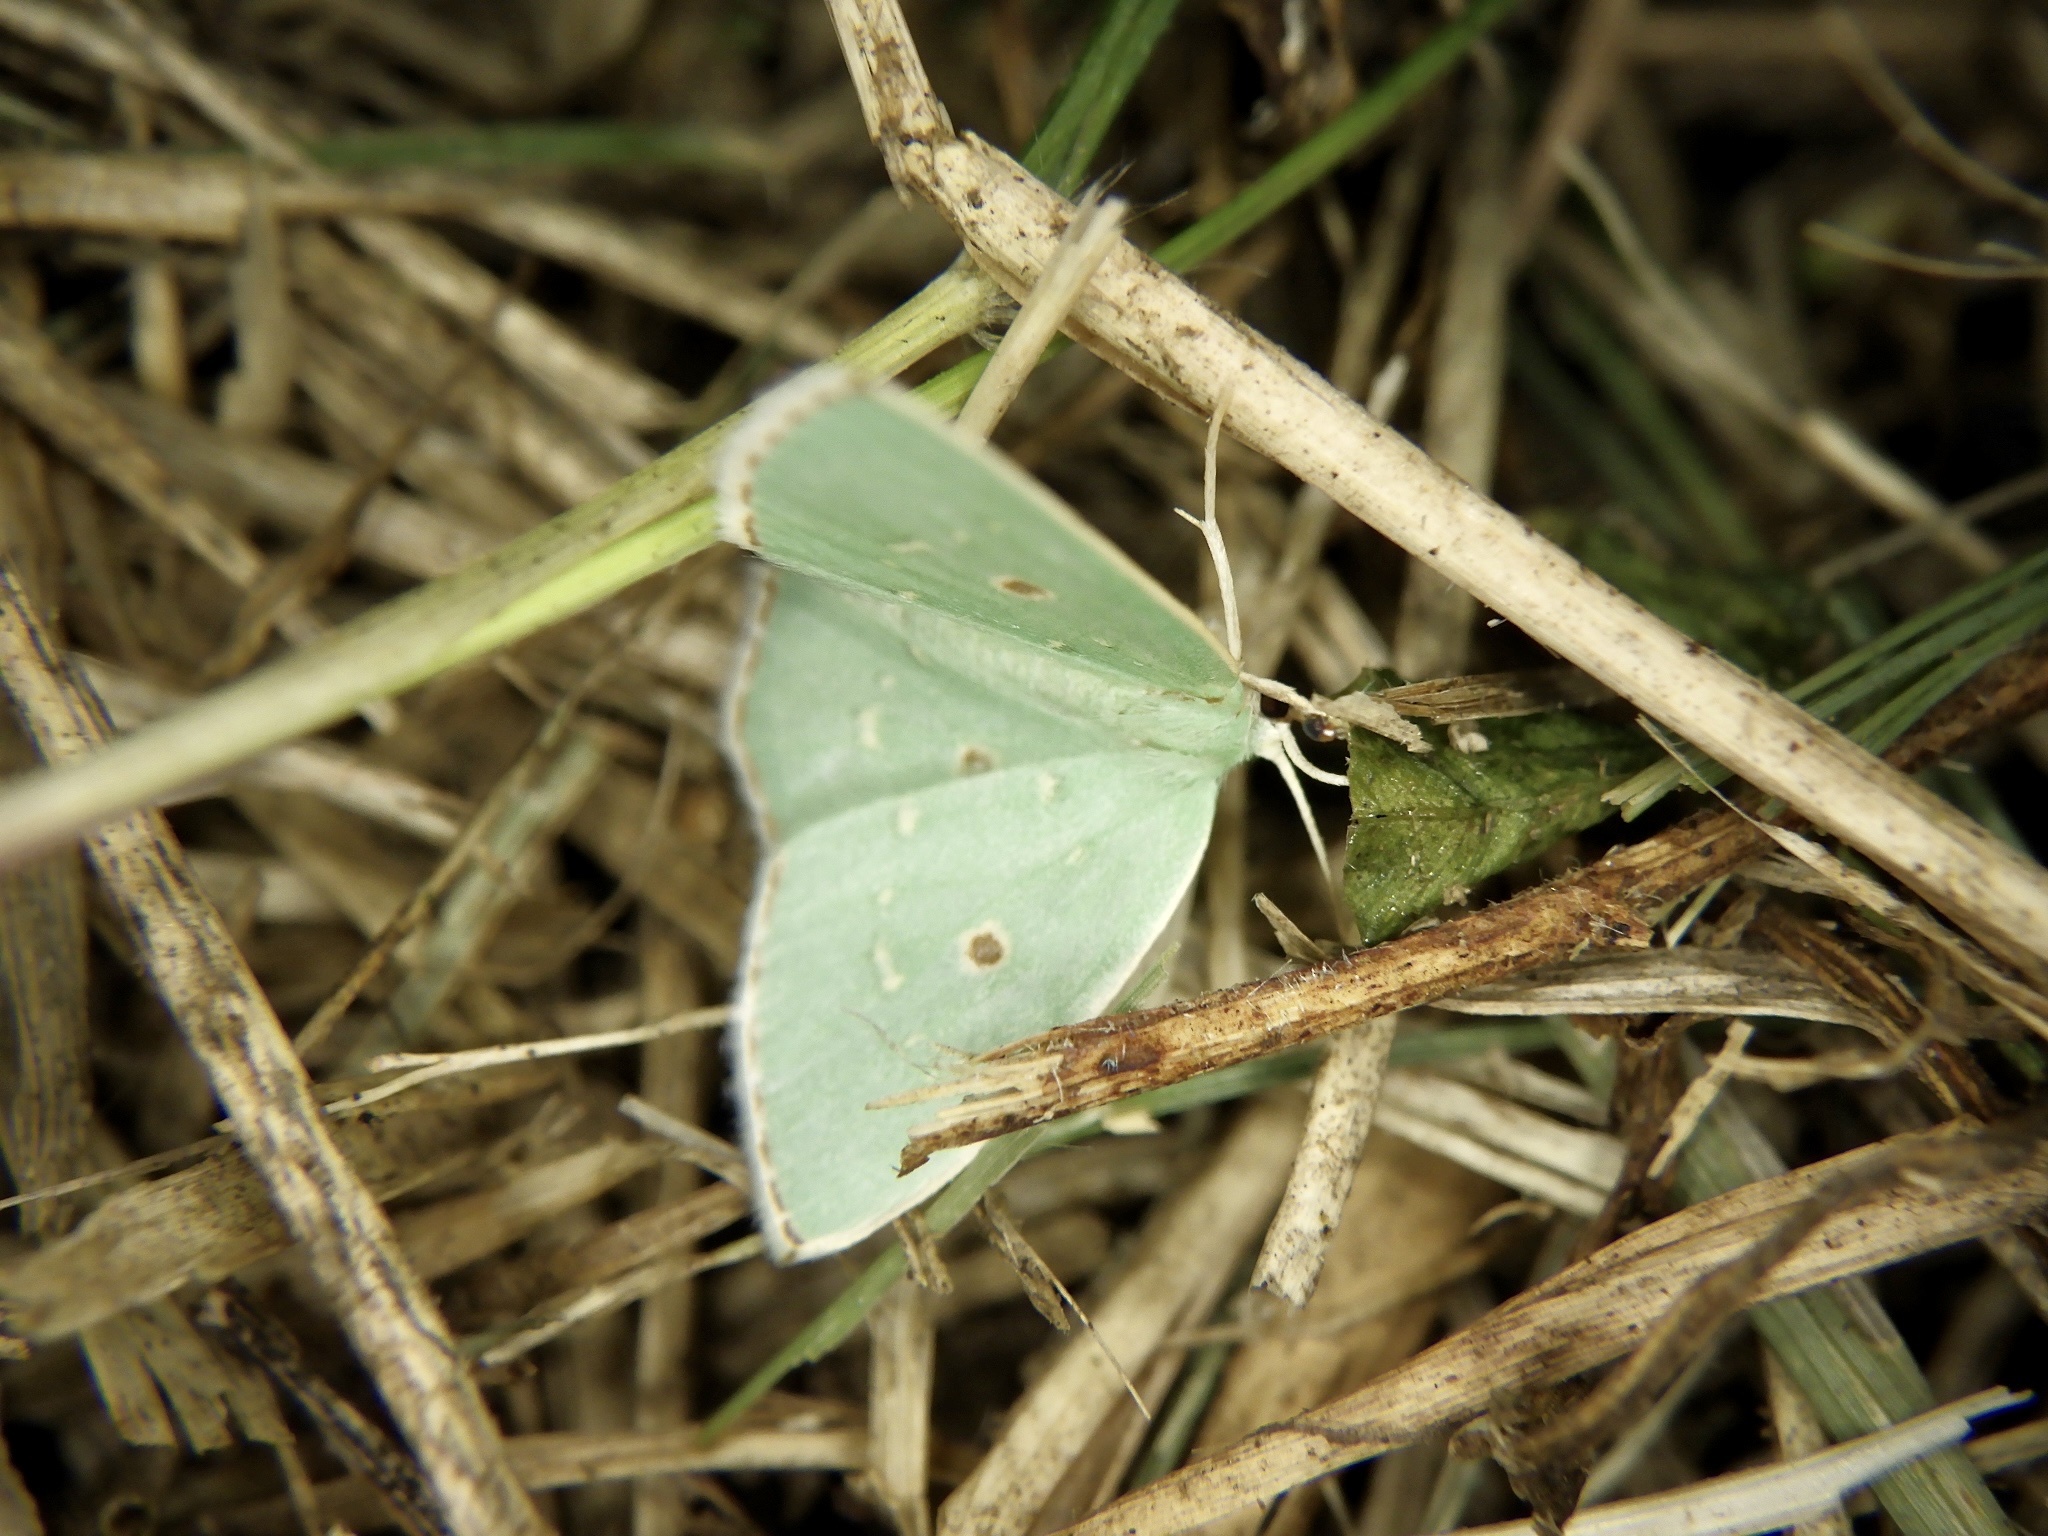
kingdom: Animalia
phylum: Arthropoda
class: Insecta
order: Lepidoptera
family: Geometridae
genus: Comostola
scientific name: Comostola subtiliaria
